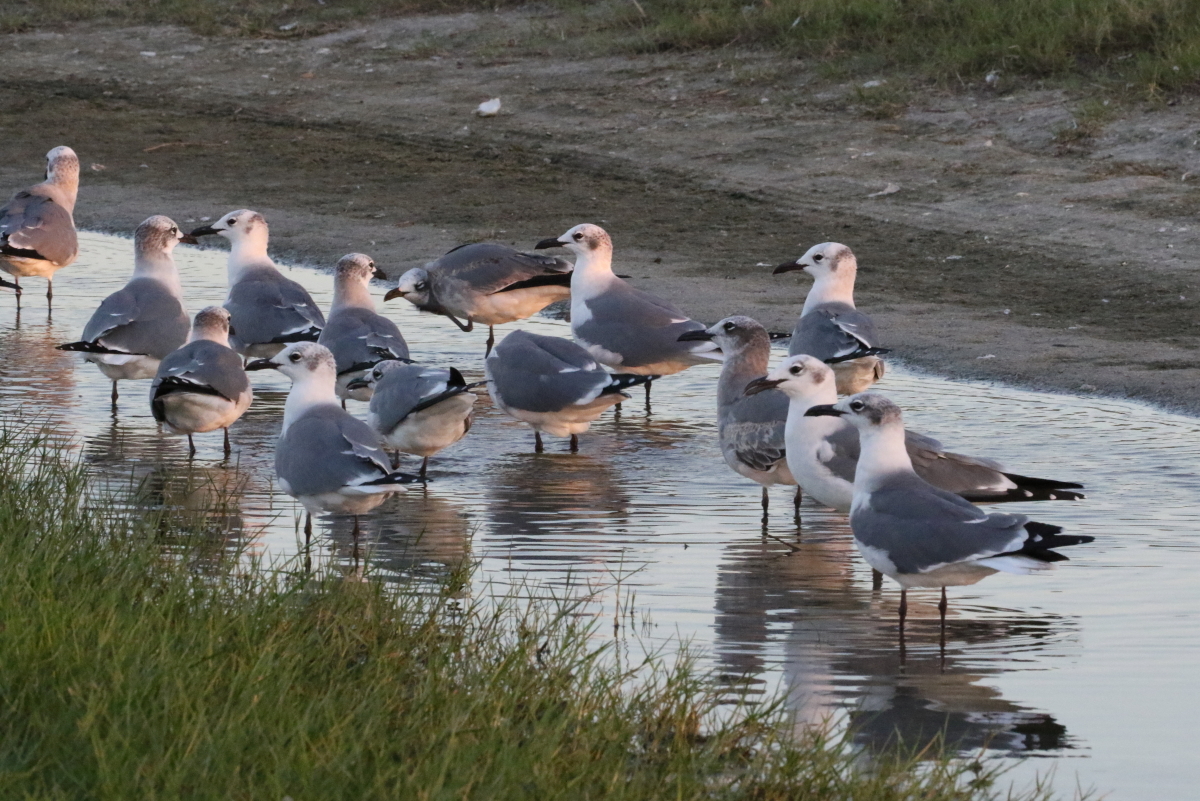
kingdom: Animalia
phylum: Chordata
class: Aves
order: Charadriiformes
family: Laridae
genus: Leucophaeus
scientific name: Leucophaeus atricilla
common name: Laughing gull
